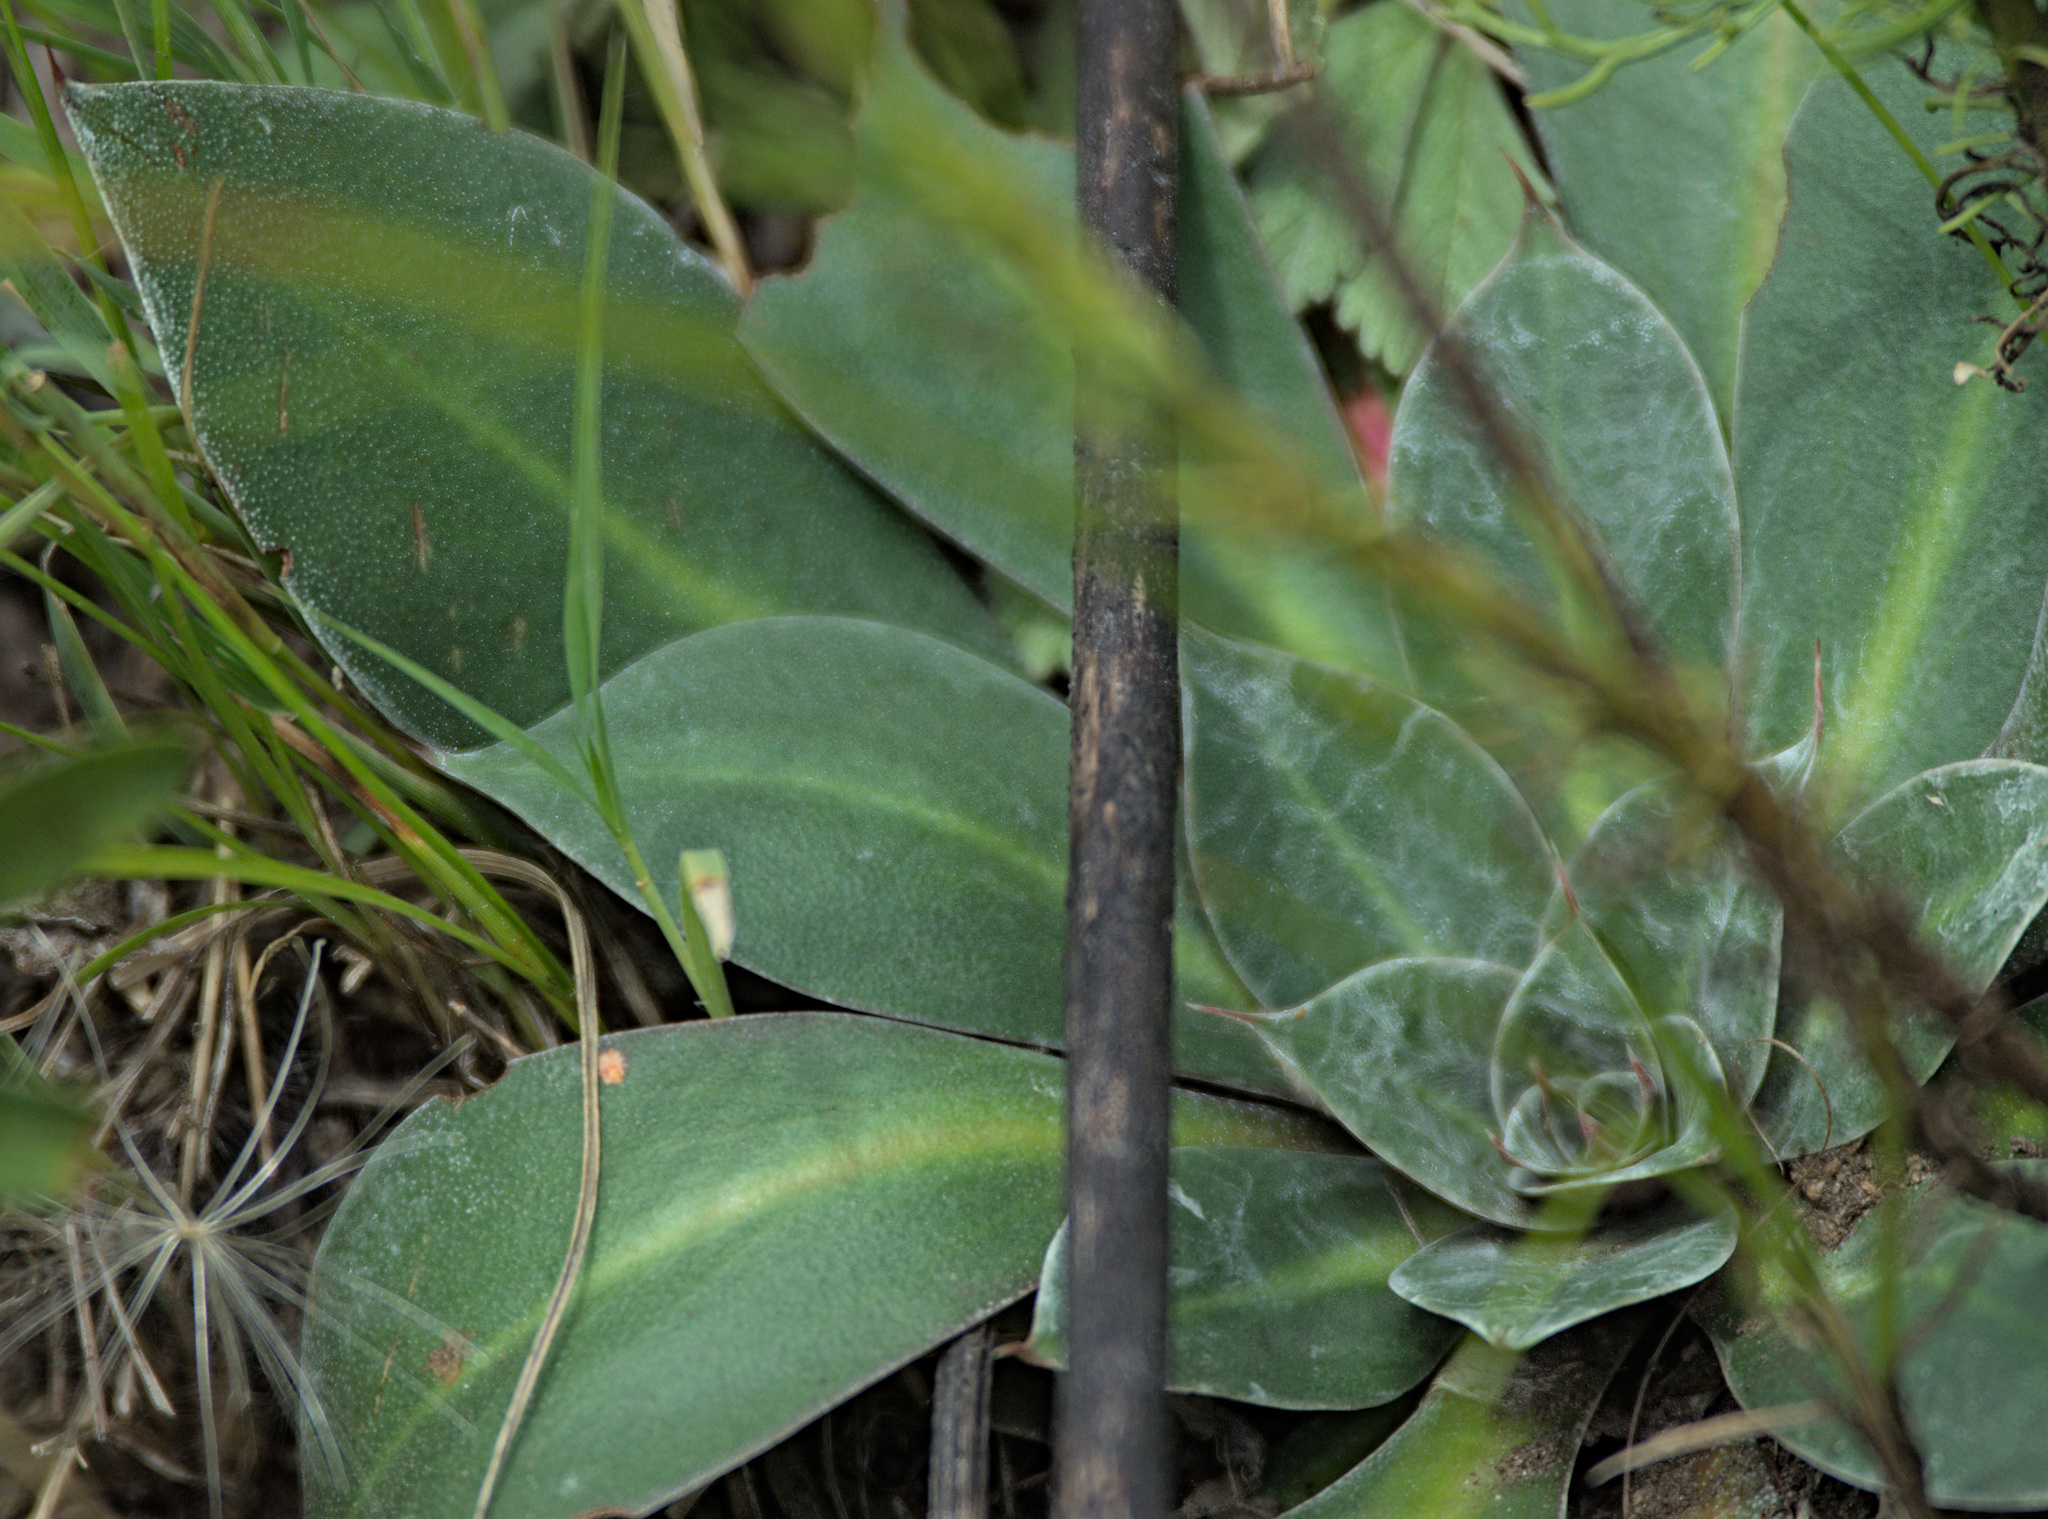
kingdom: Plantae
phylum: Tracheophyta
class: Magnoliopsida
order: Caryophyllales
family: Plumbaginaceae
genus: Goniolimon
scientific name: Goniolimon speciosum
